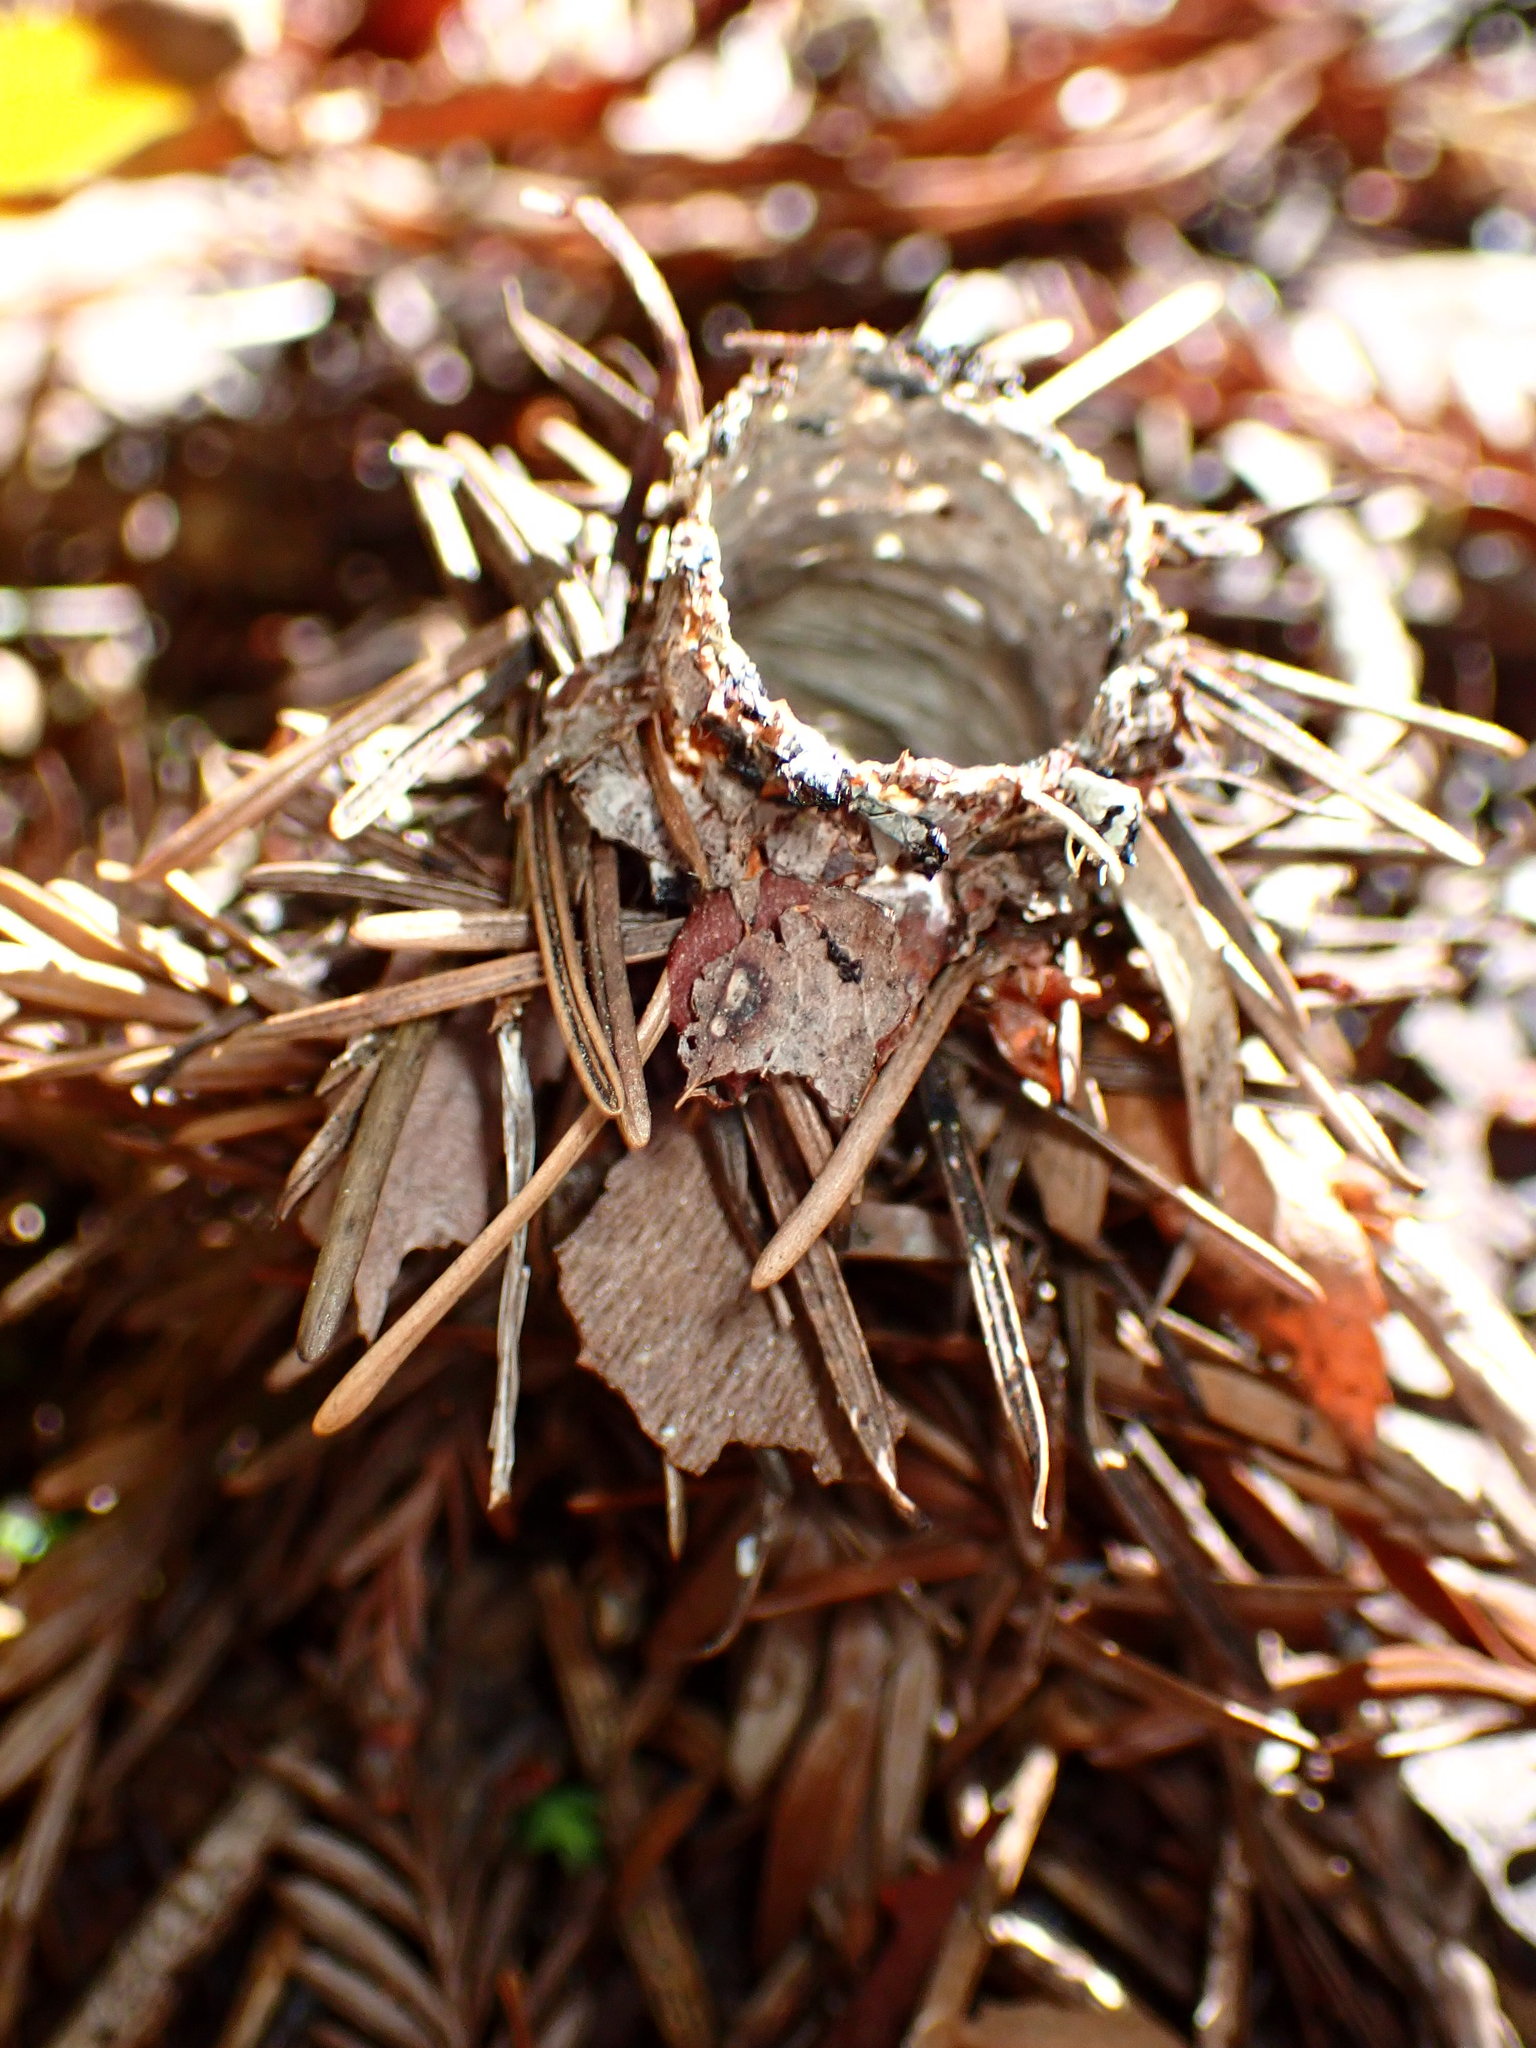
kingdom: Animalia
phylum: Arthropoda
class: Arachnida
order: Araneae
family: Antrodiaetidae
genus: Atypoides
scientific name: Atypoides riversi
